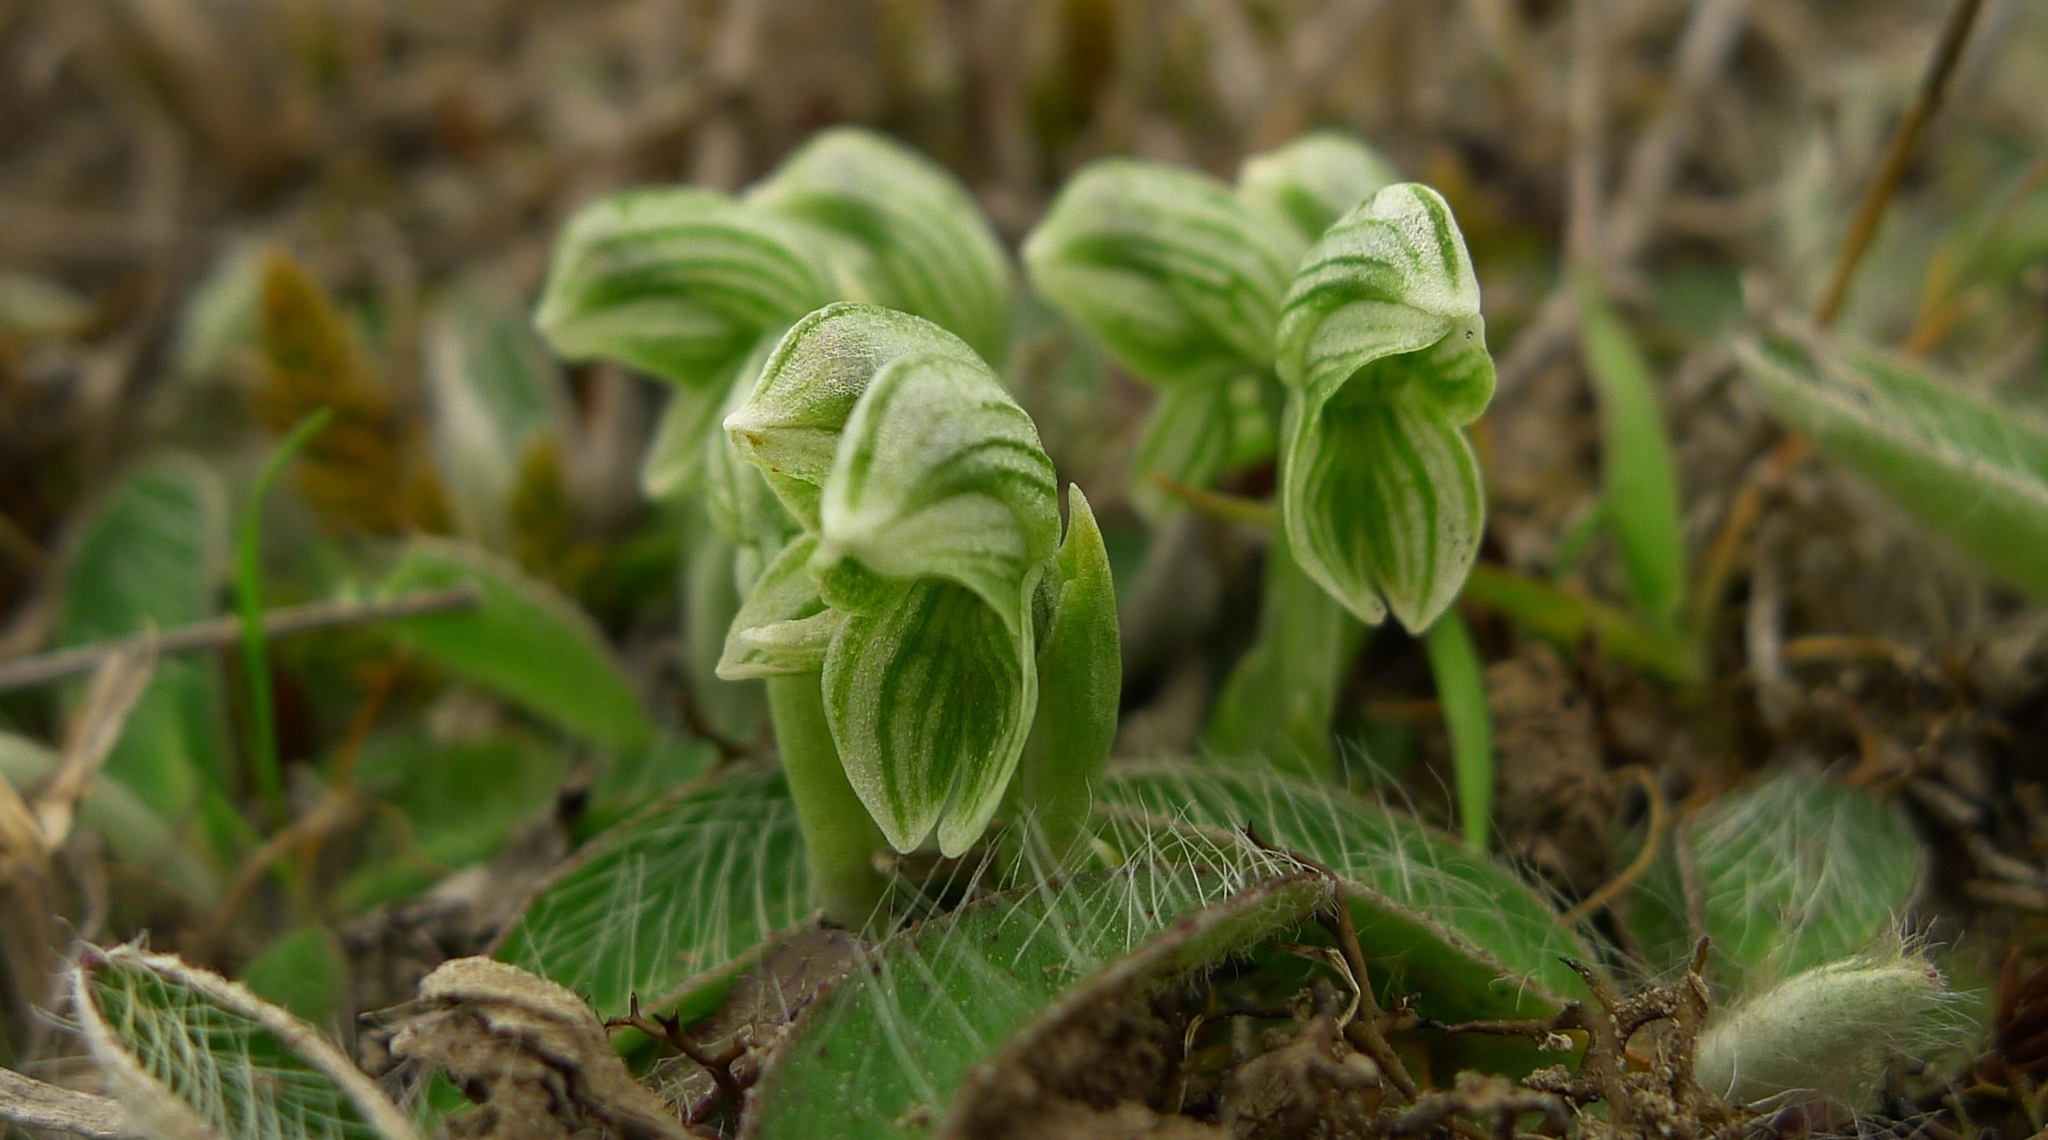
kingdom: Plantae
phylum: Tracheophyta
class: Liliopsida
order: Asparagales
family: Orchidaceae
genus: Pterostylis
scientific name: Pterostylis tanypoda
